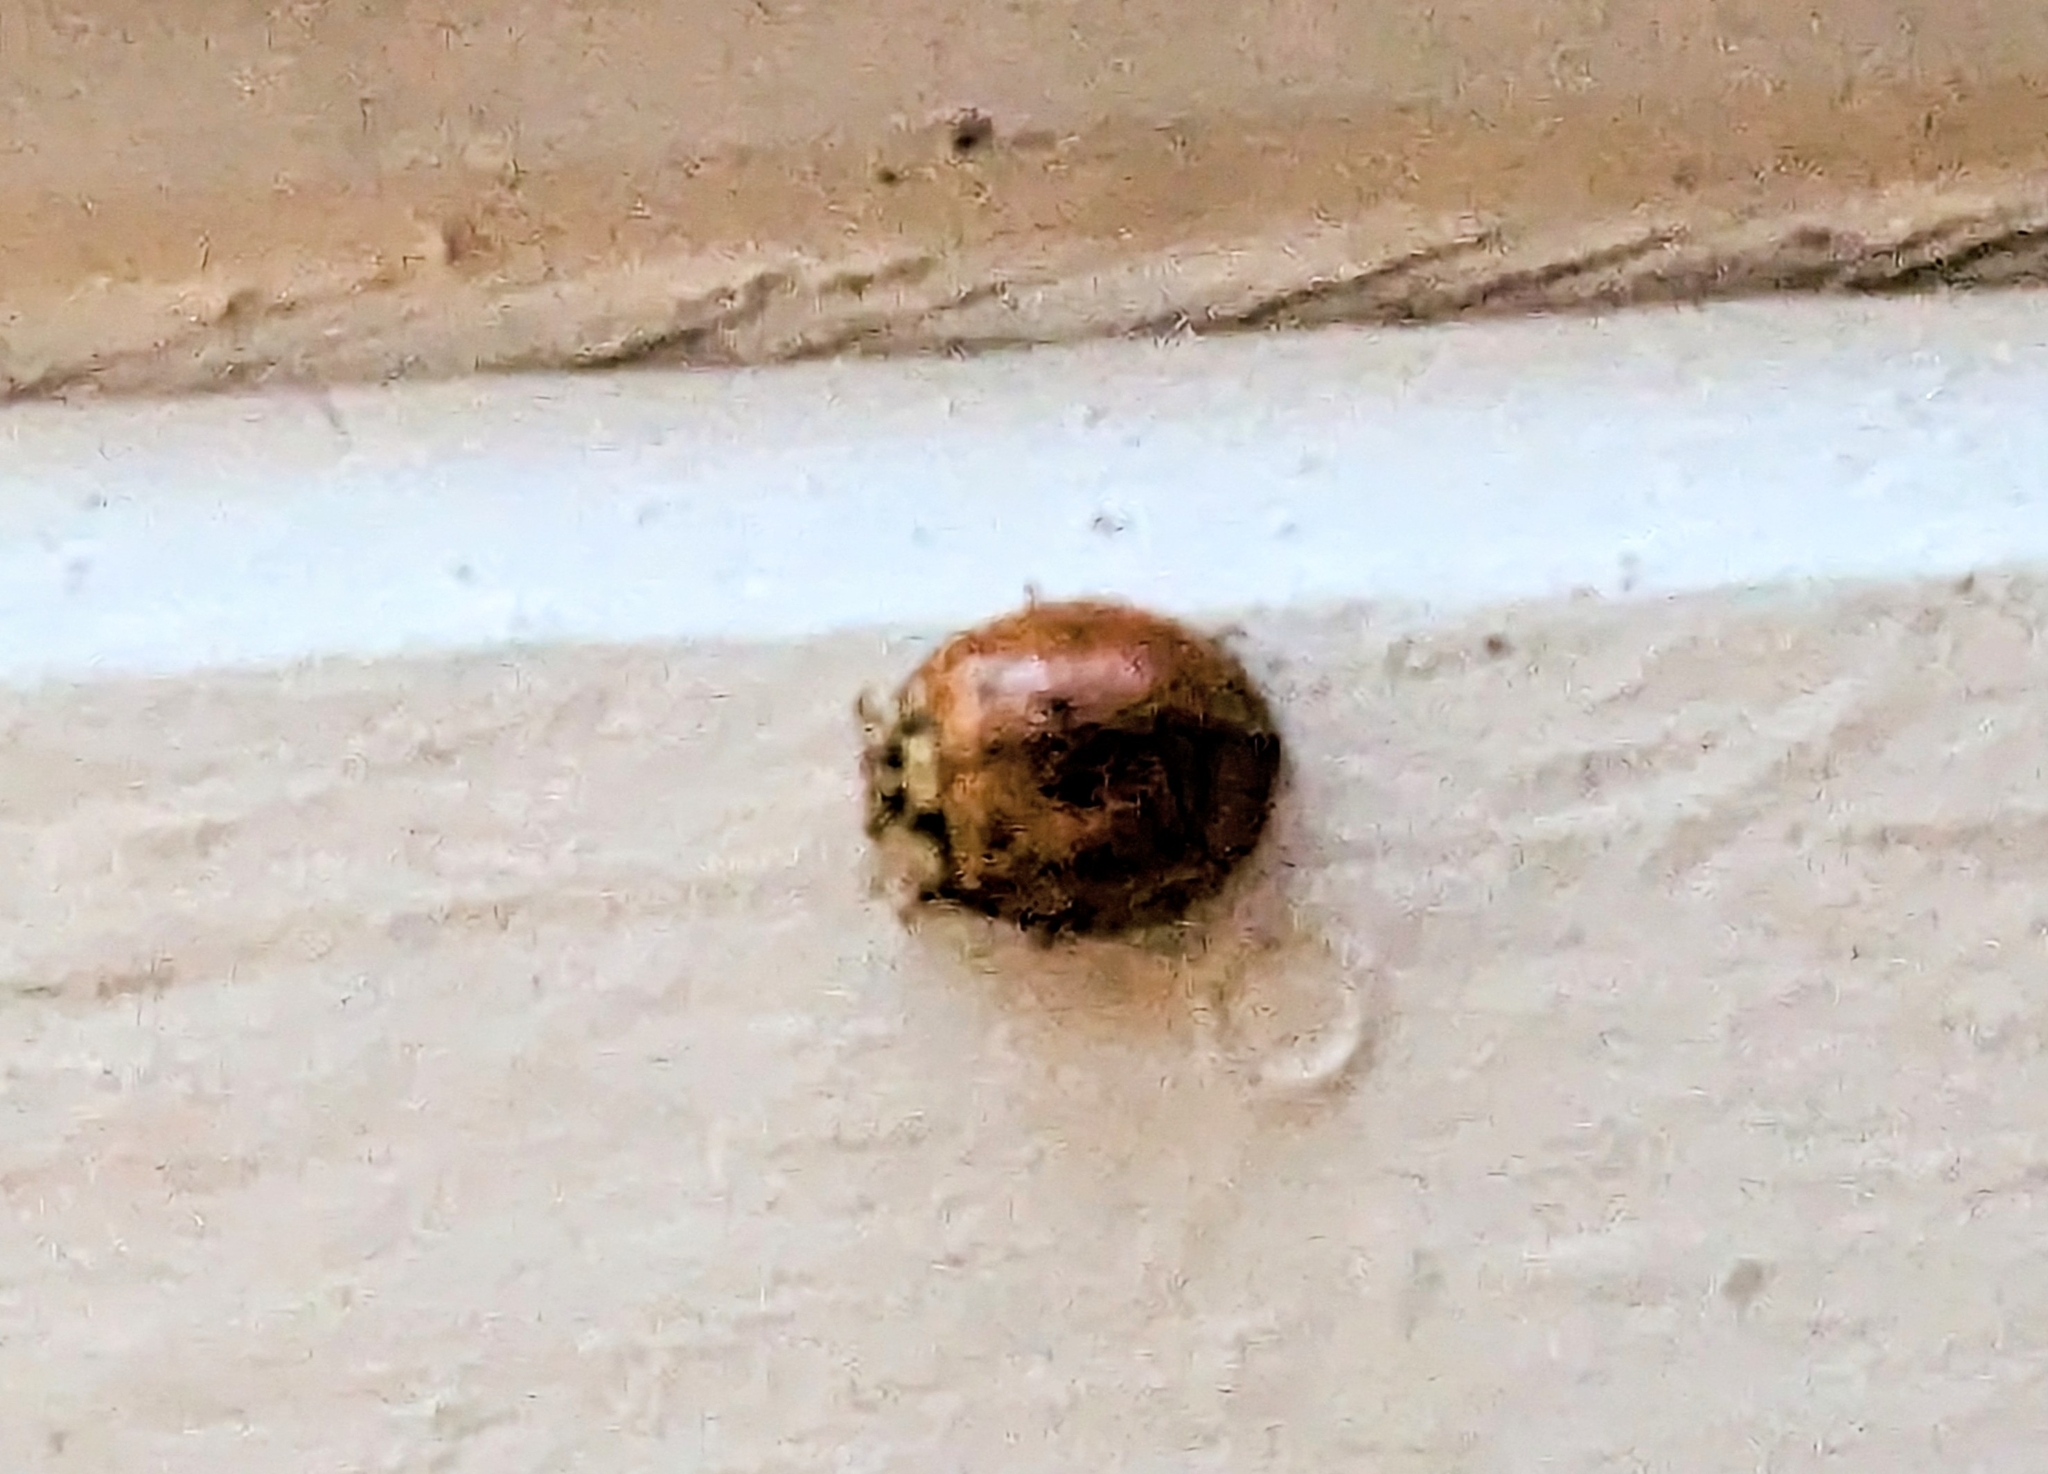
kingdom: Animalia
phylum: Arthropoda
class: Insecta
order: Coleoptera
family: Coccinellidae
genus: Harmonia
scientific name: Harmonia axyridis
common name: Harlequin ladybird
